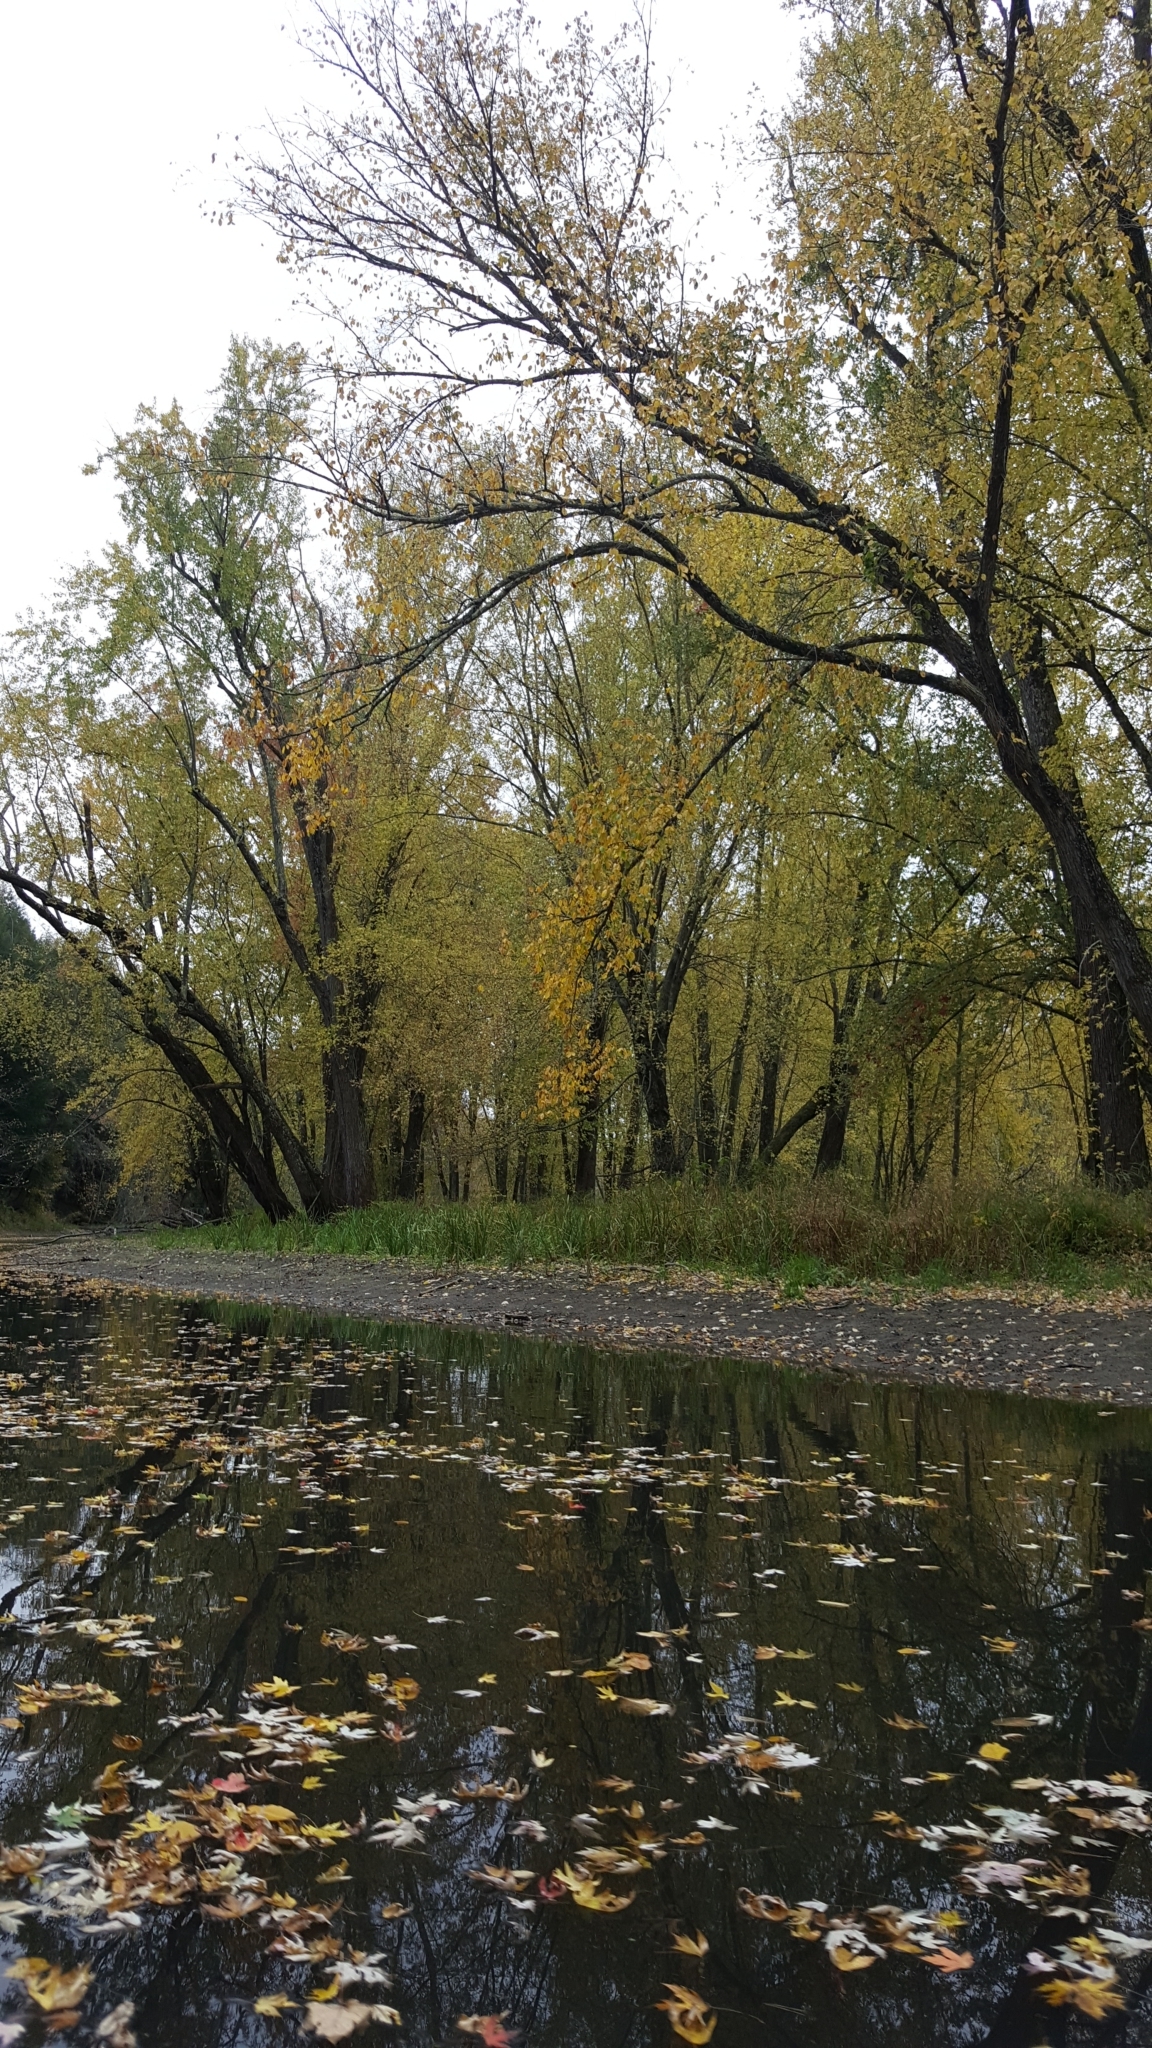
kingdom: Plantae
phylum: Tracheophyta
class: Magnoliopsida
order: Sapindales
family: Sapindaceae
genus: Acer
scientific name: Acer saccharinum
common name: Silver maple
